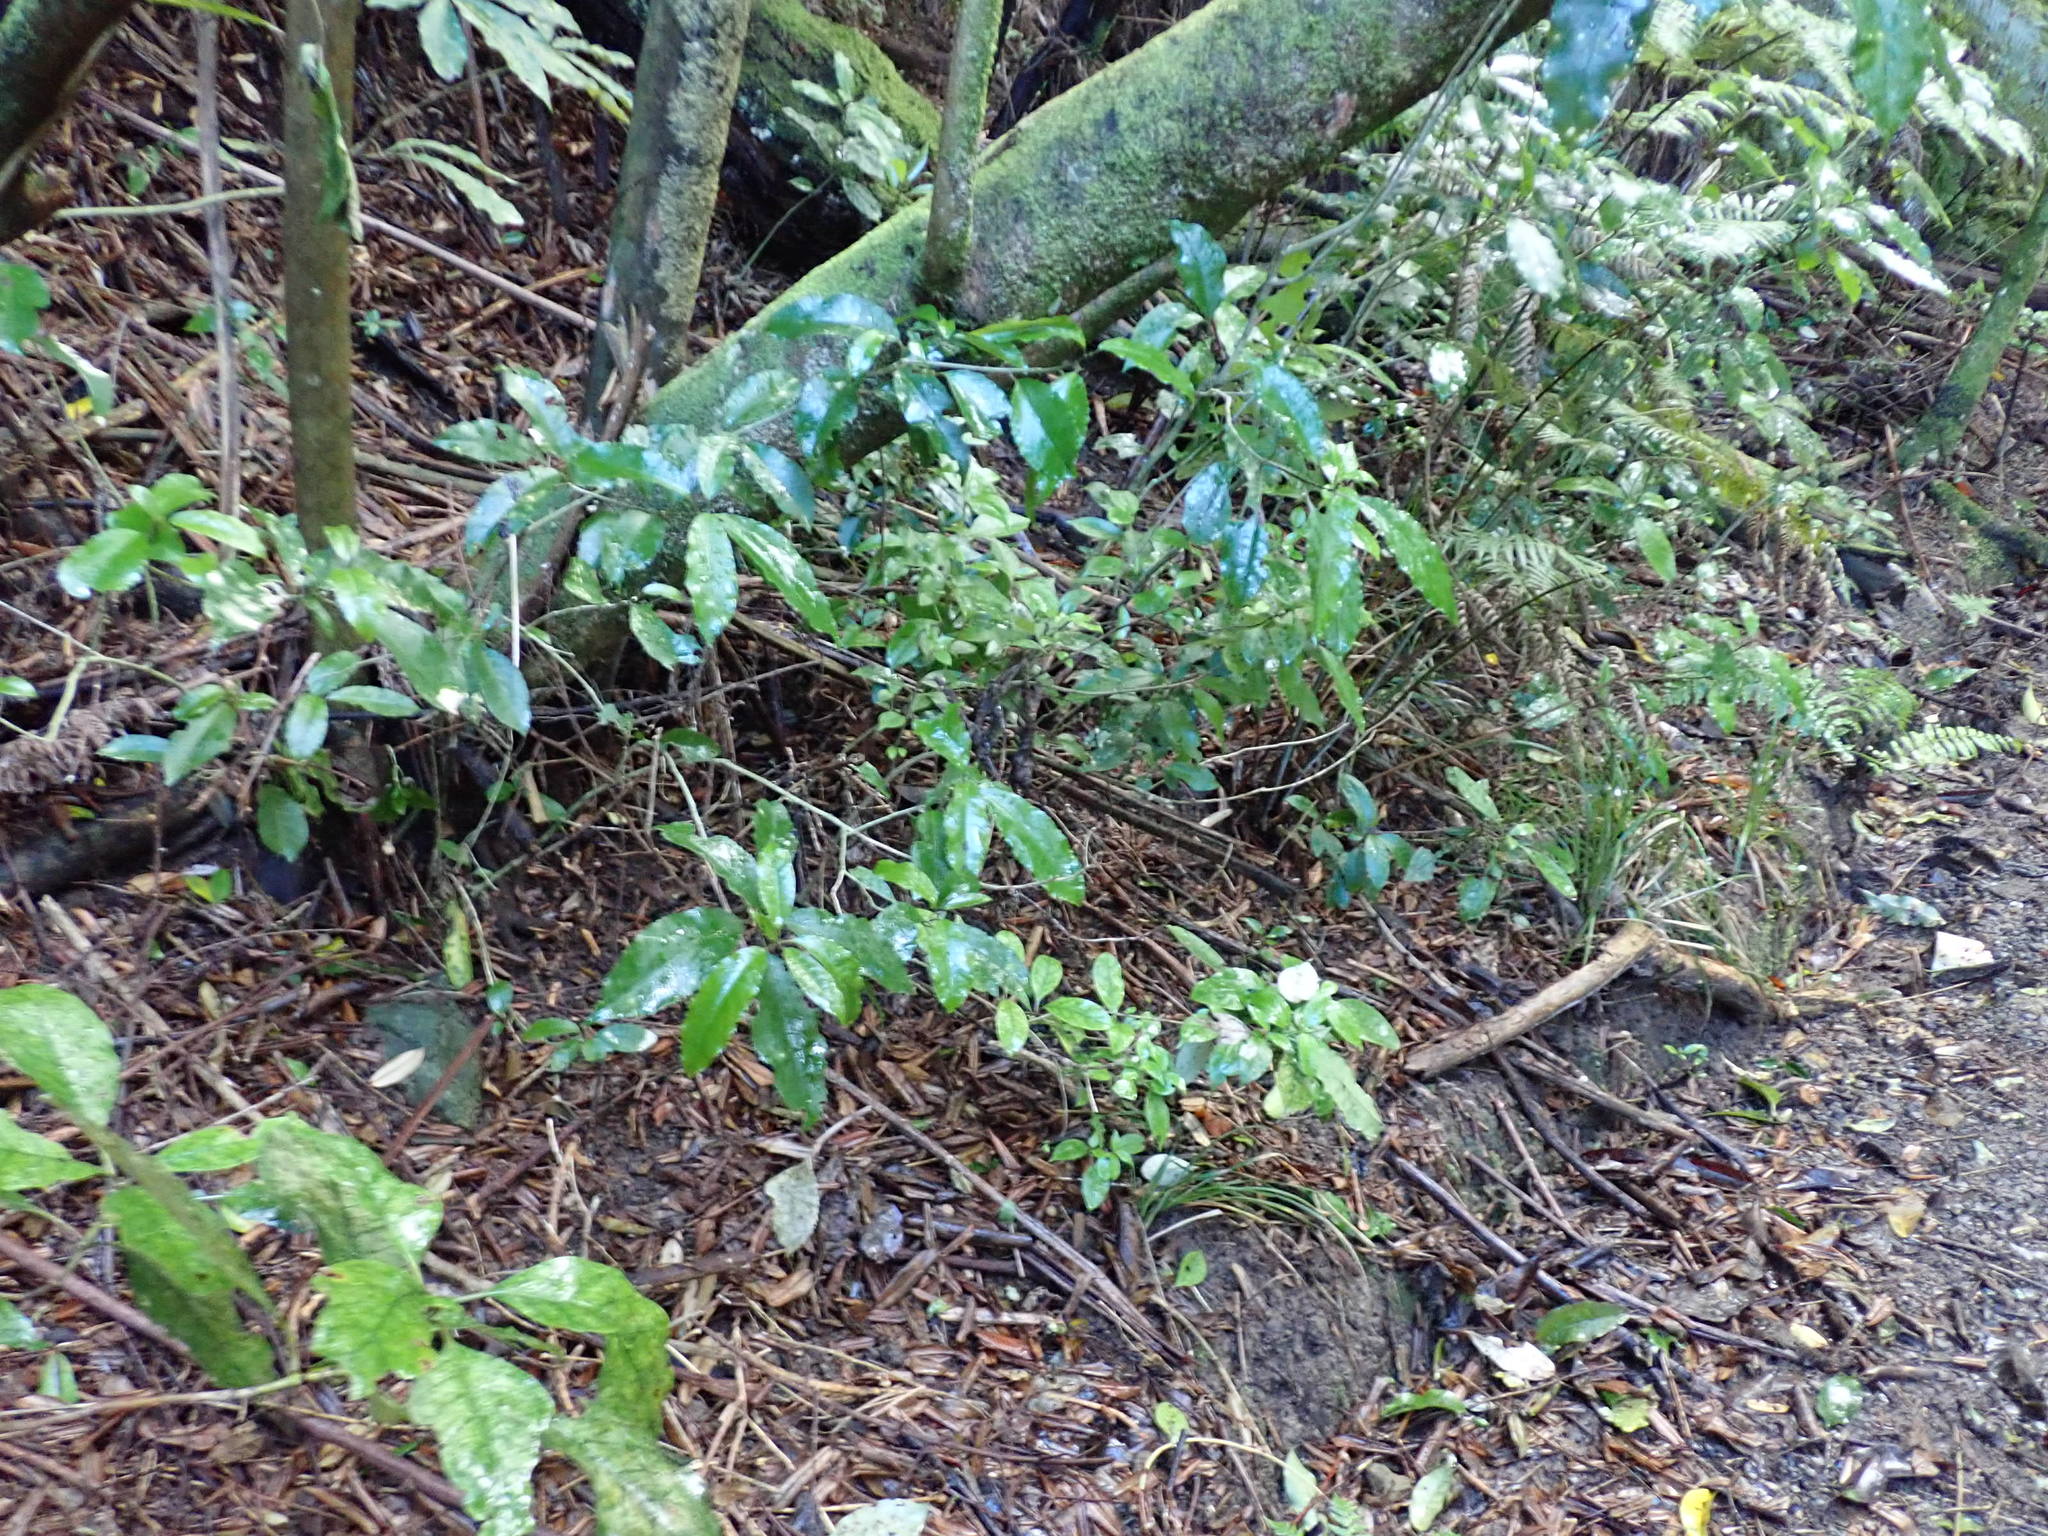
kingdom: Plantae
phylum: Tracheophyta
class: Magnoliopsida
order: Gentianales
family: Rubiaceae
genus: Coprosma
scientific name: Coprosma autumnalis
